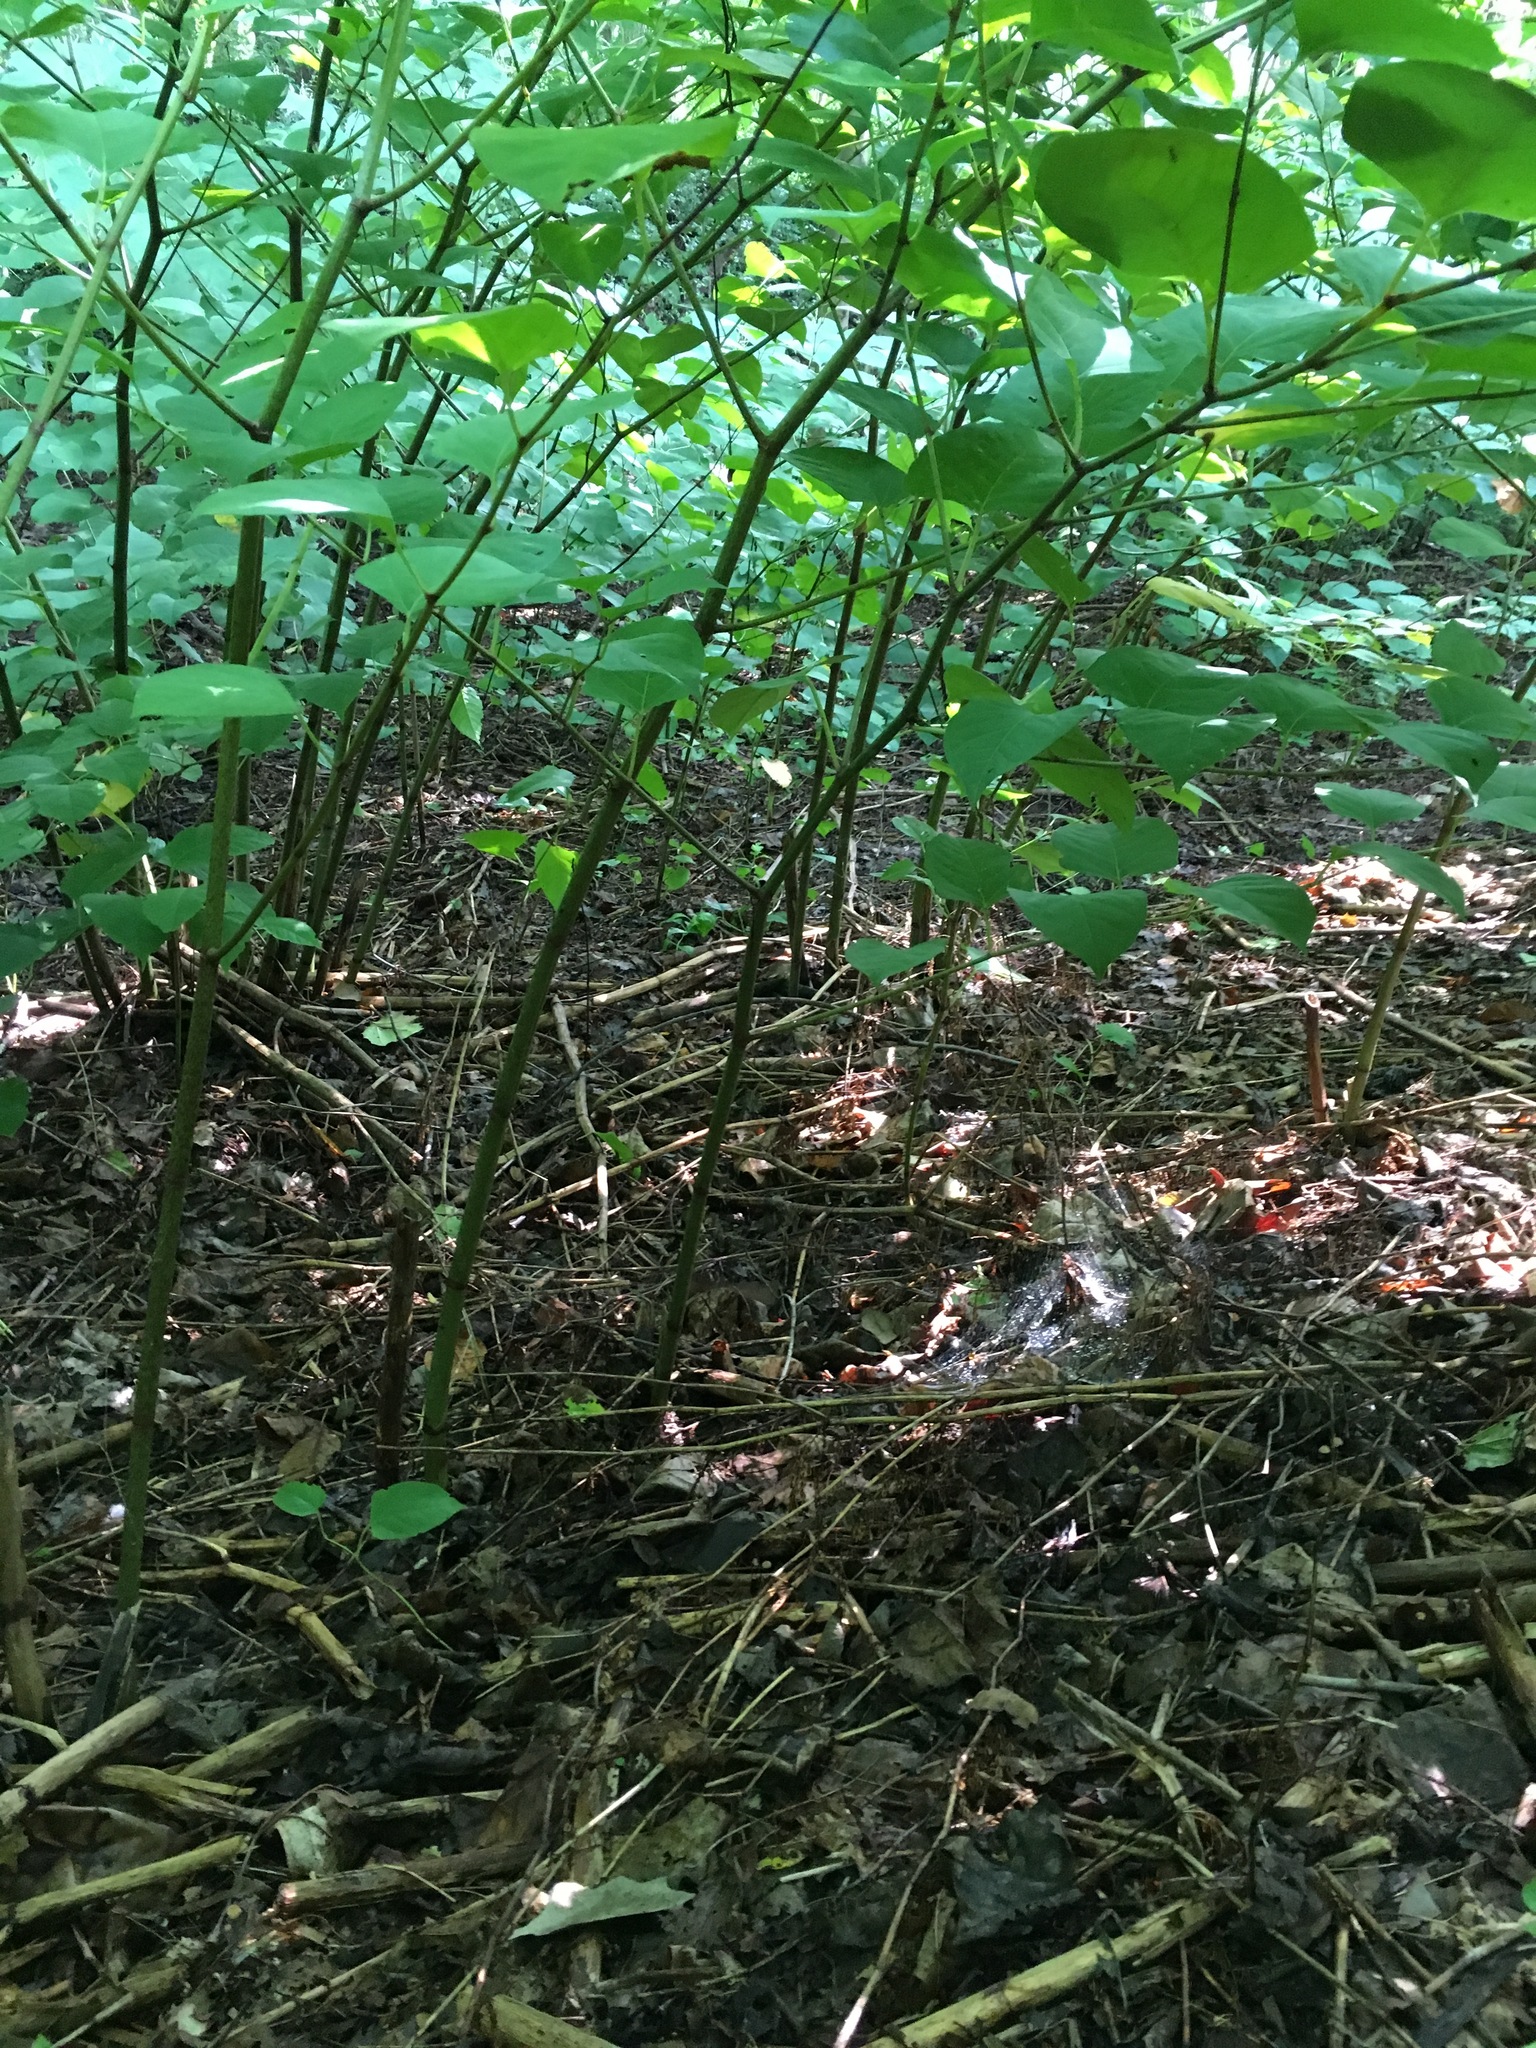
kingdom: Plantae
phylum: Tracheophyta
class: Magnoliopsida
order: Caryophyllales
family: Polygonaceae
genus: Reynoutria
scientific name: Reynoutria japonica
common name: Japanese knotweed
